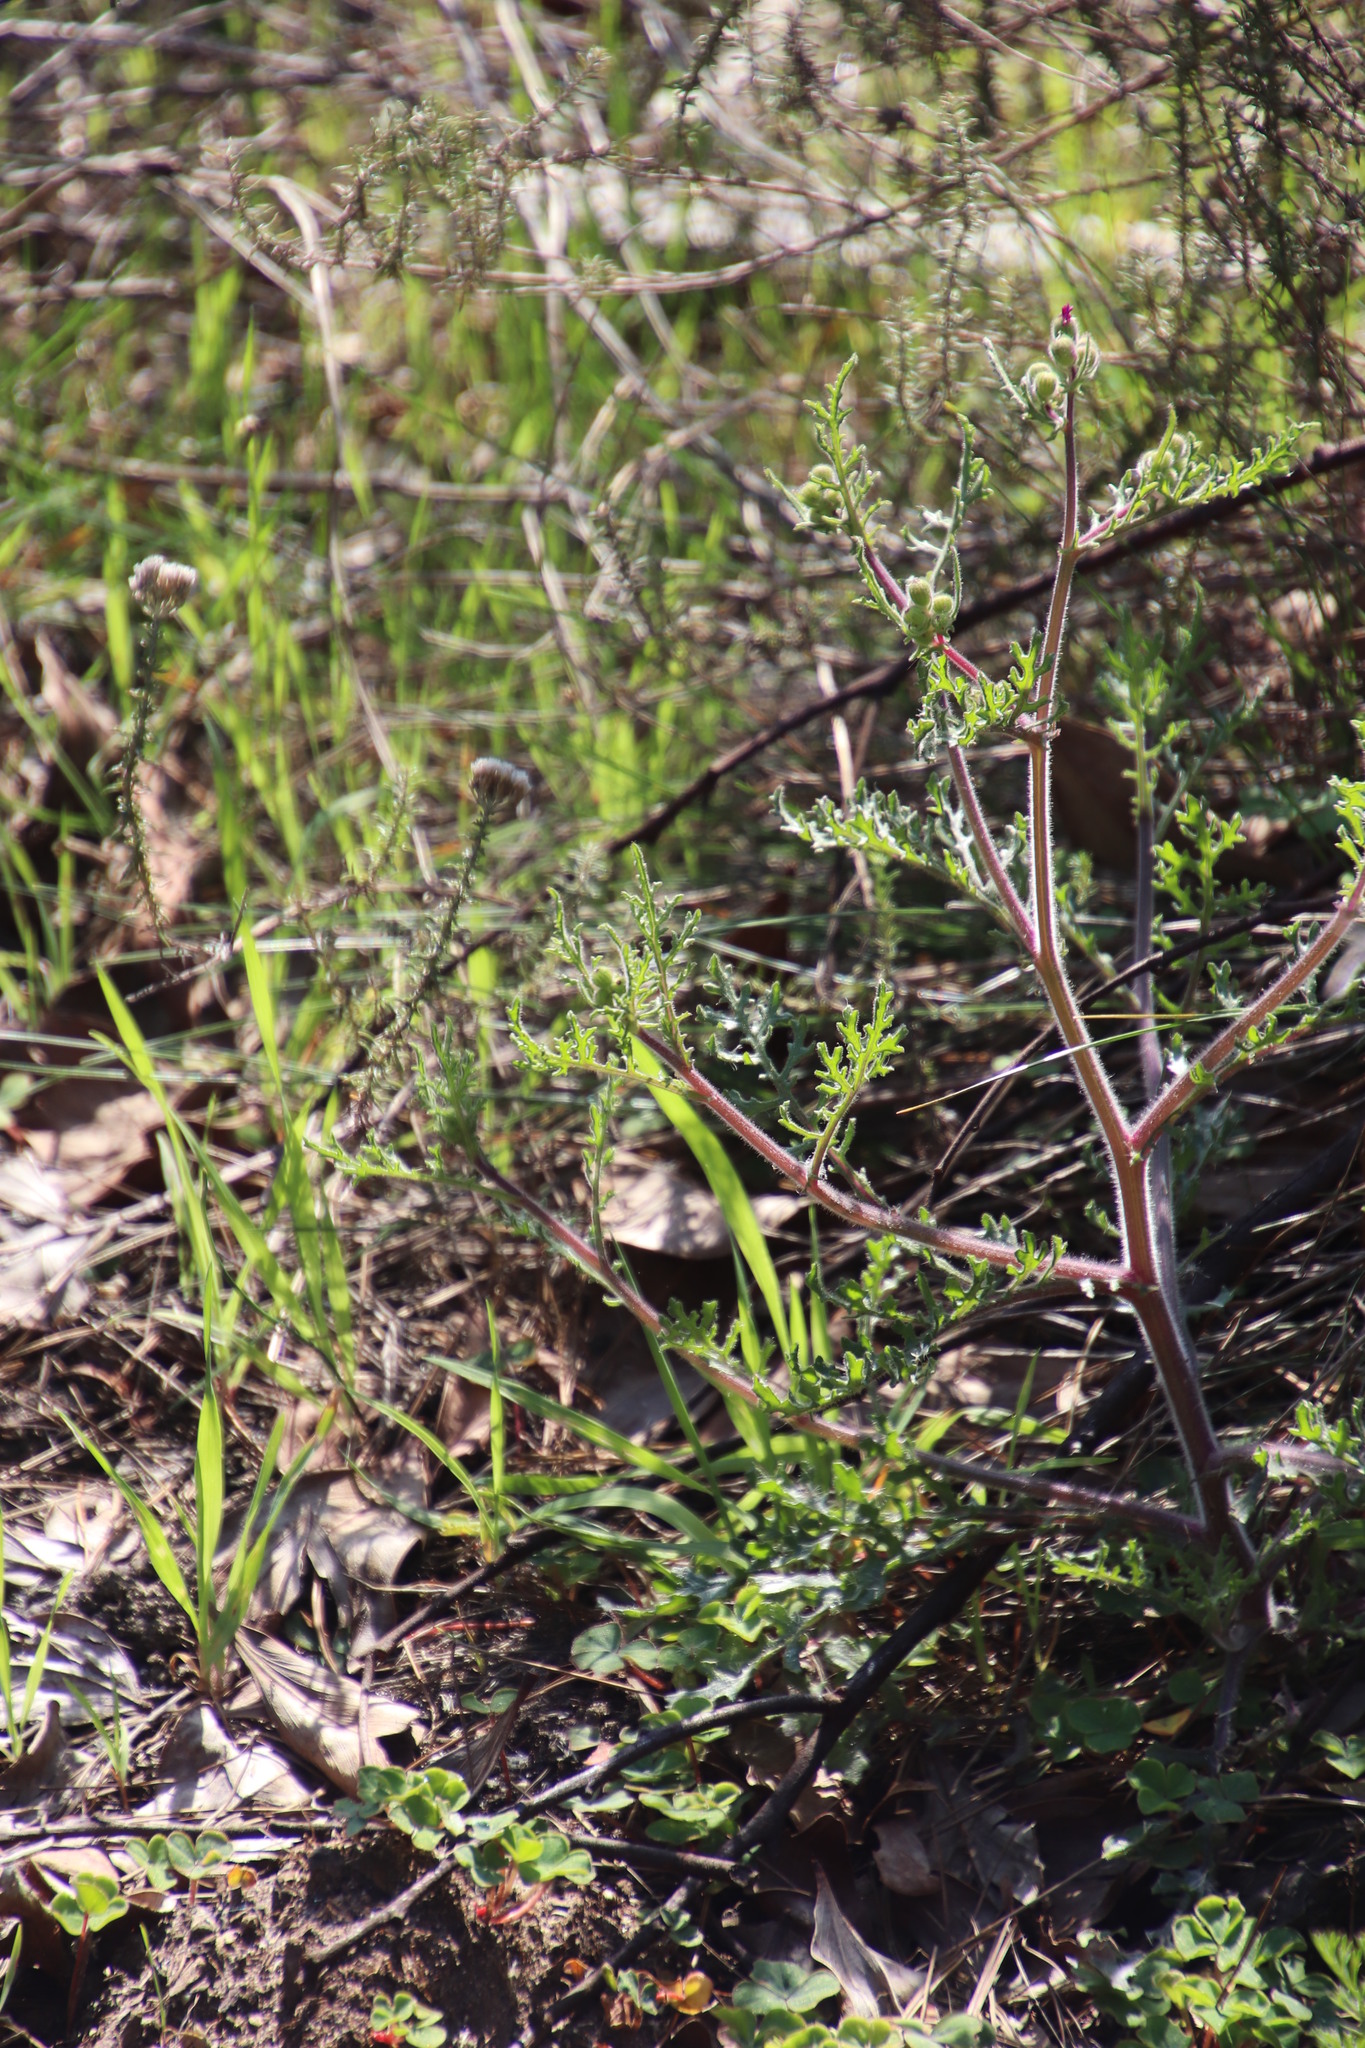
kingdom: Plantae
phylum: Tracheophyta
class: Magnoliopsida
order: Asterales
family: Asteraceae
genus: Senecio
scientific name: Senecio arenarius
